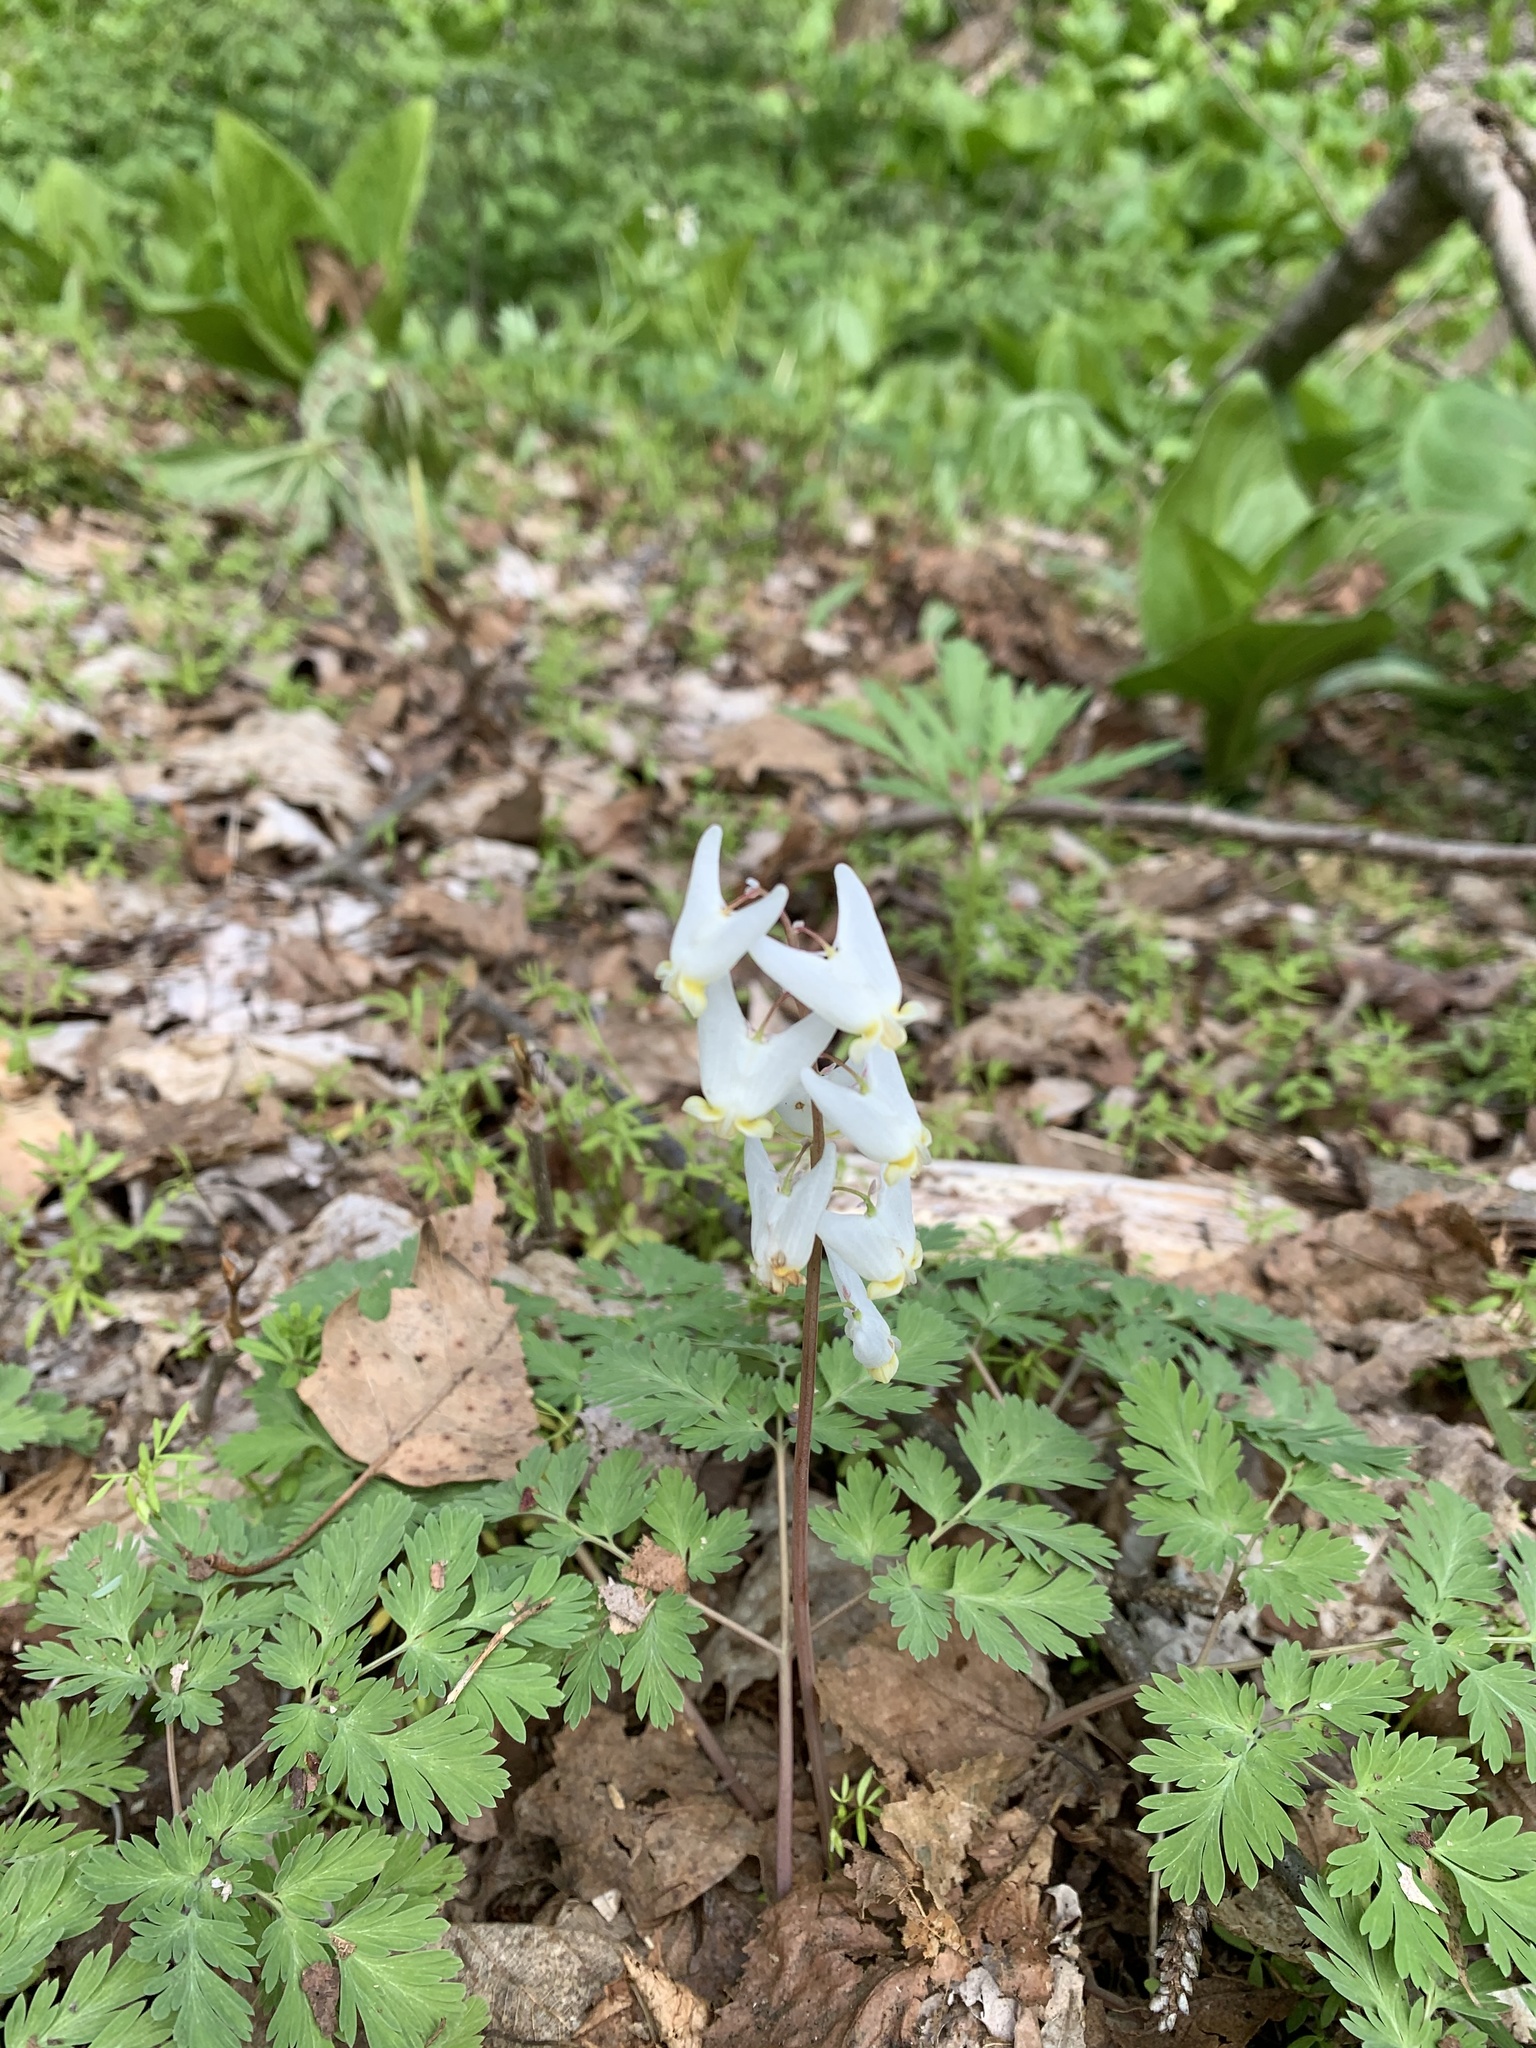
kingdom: Plantae
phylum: Tracheophyta
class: Magnoliopsida
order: Ranunculales
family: Papaveraceae
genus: Dicentra
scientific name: Dicentra cucullaria
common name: Dutchman's breeches
